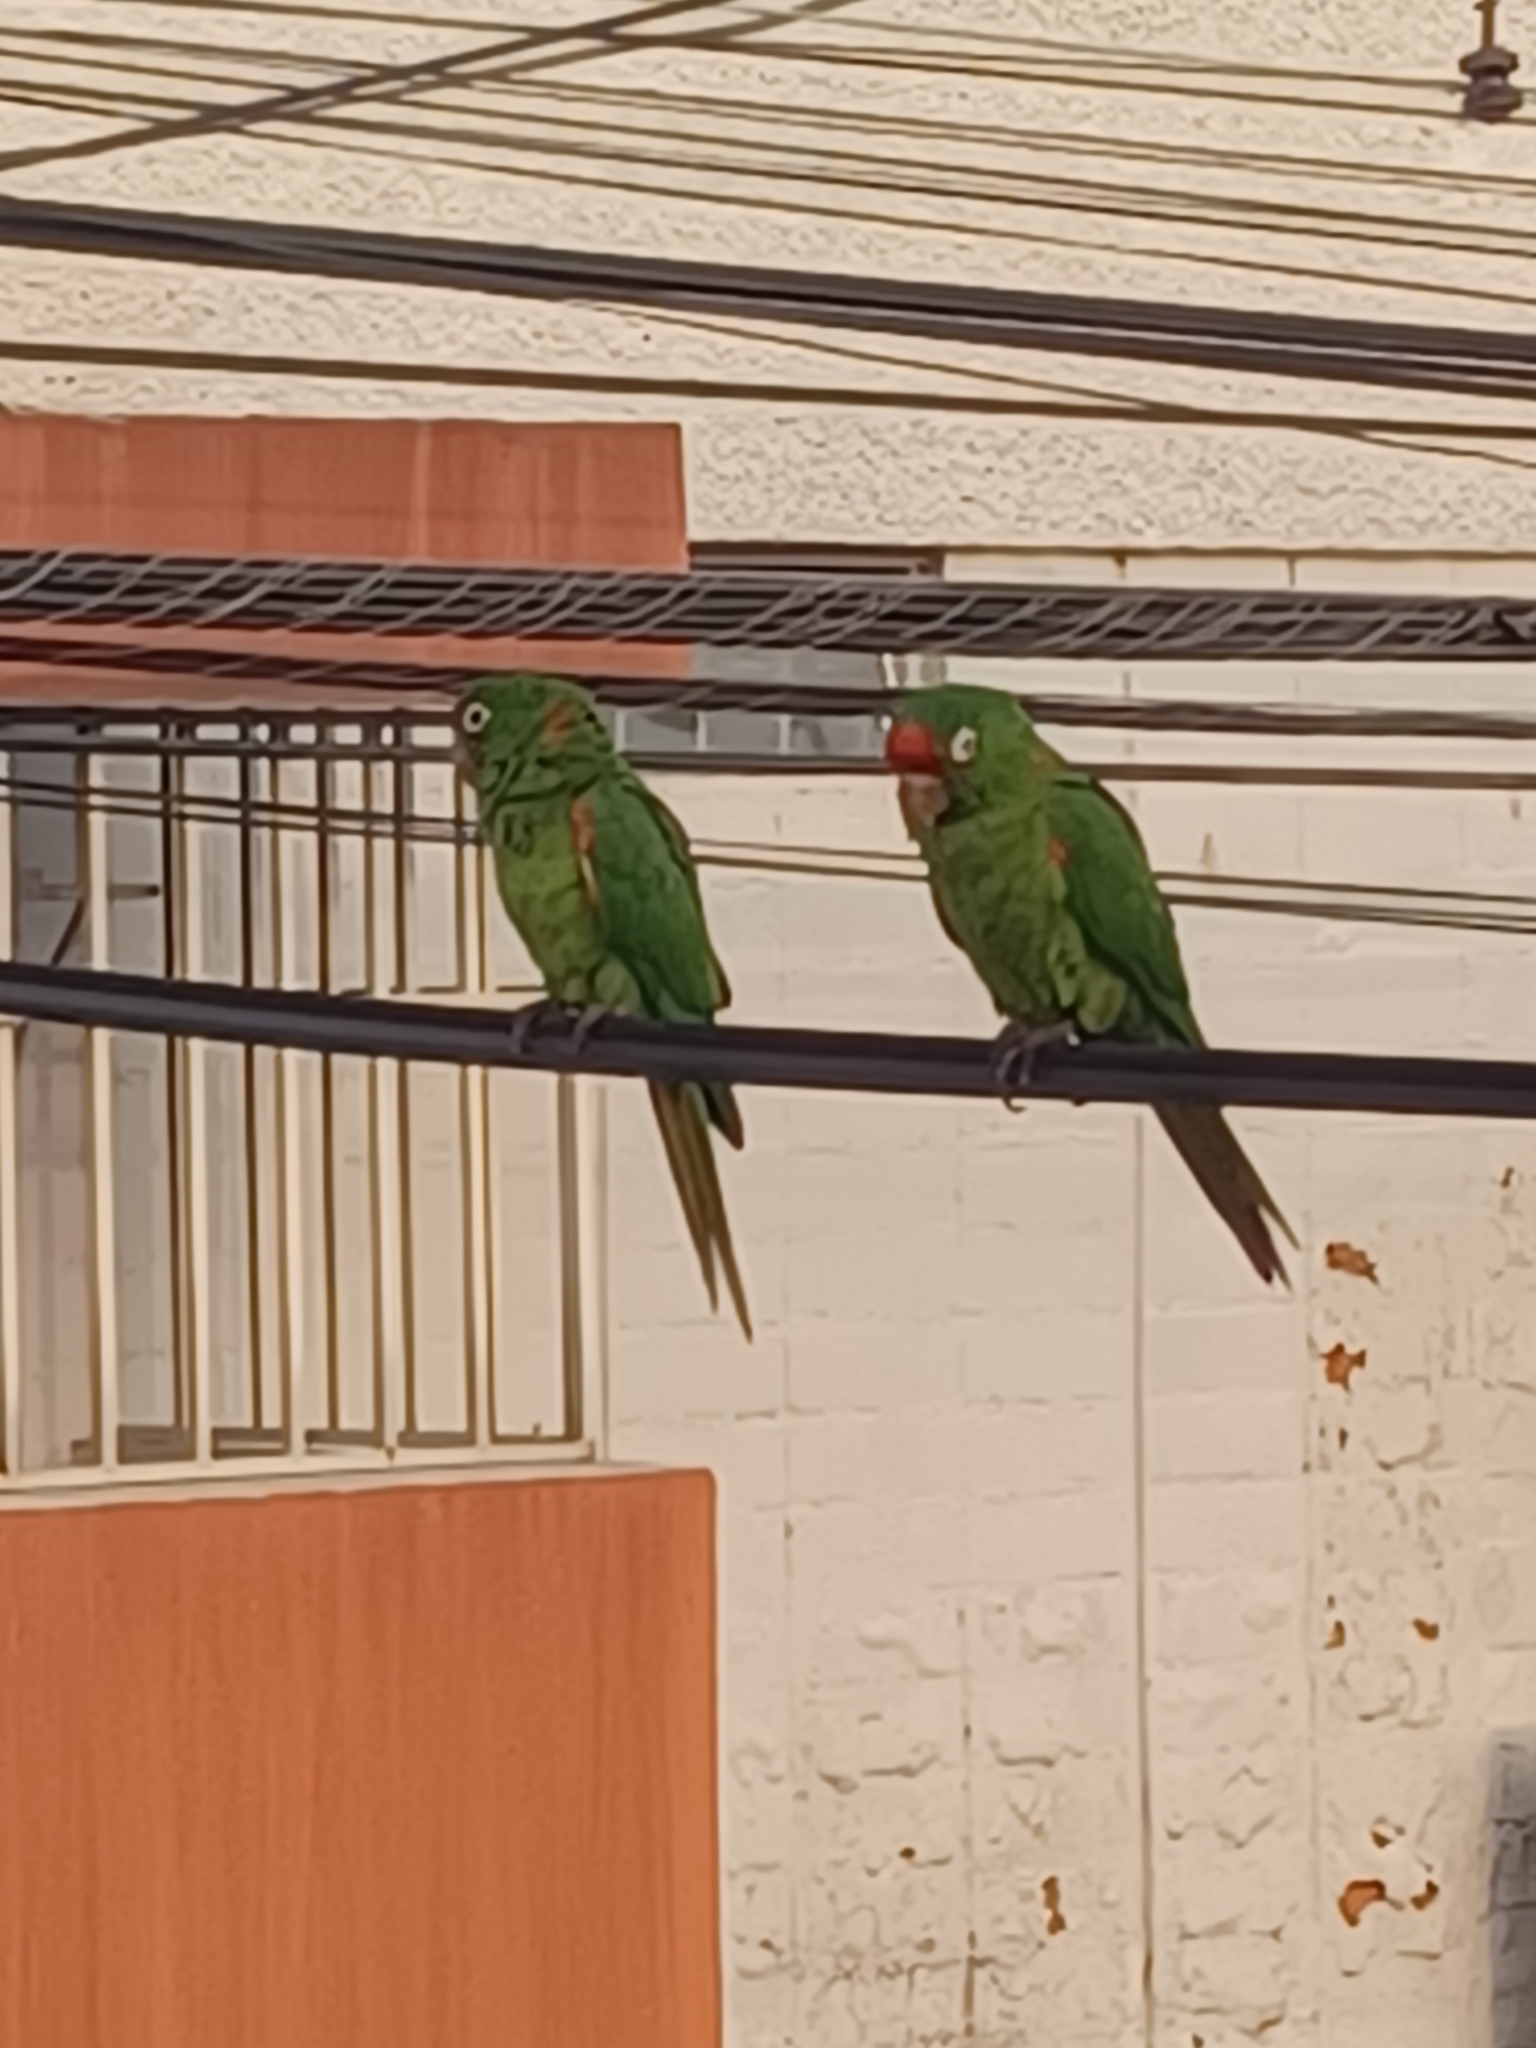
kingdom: Animalia
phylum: Chordata
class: Aves
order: Psittaciformes
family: Psittacidae
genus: Aratinga
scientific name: Aratinga finschi
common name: Crimson-fronted parakeet
